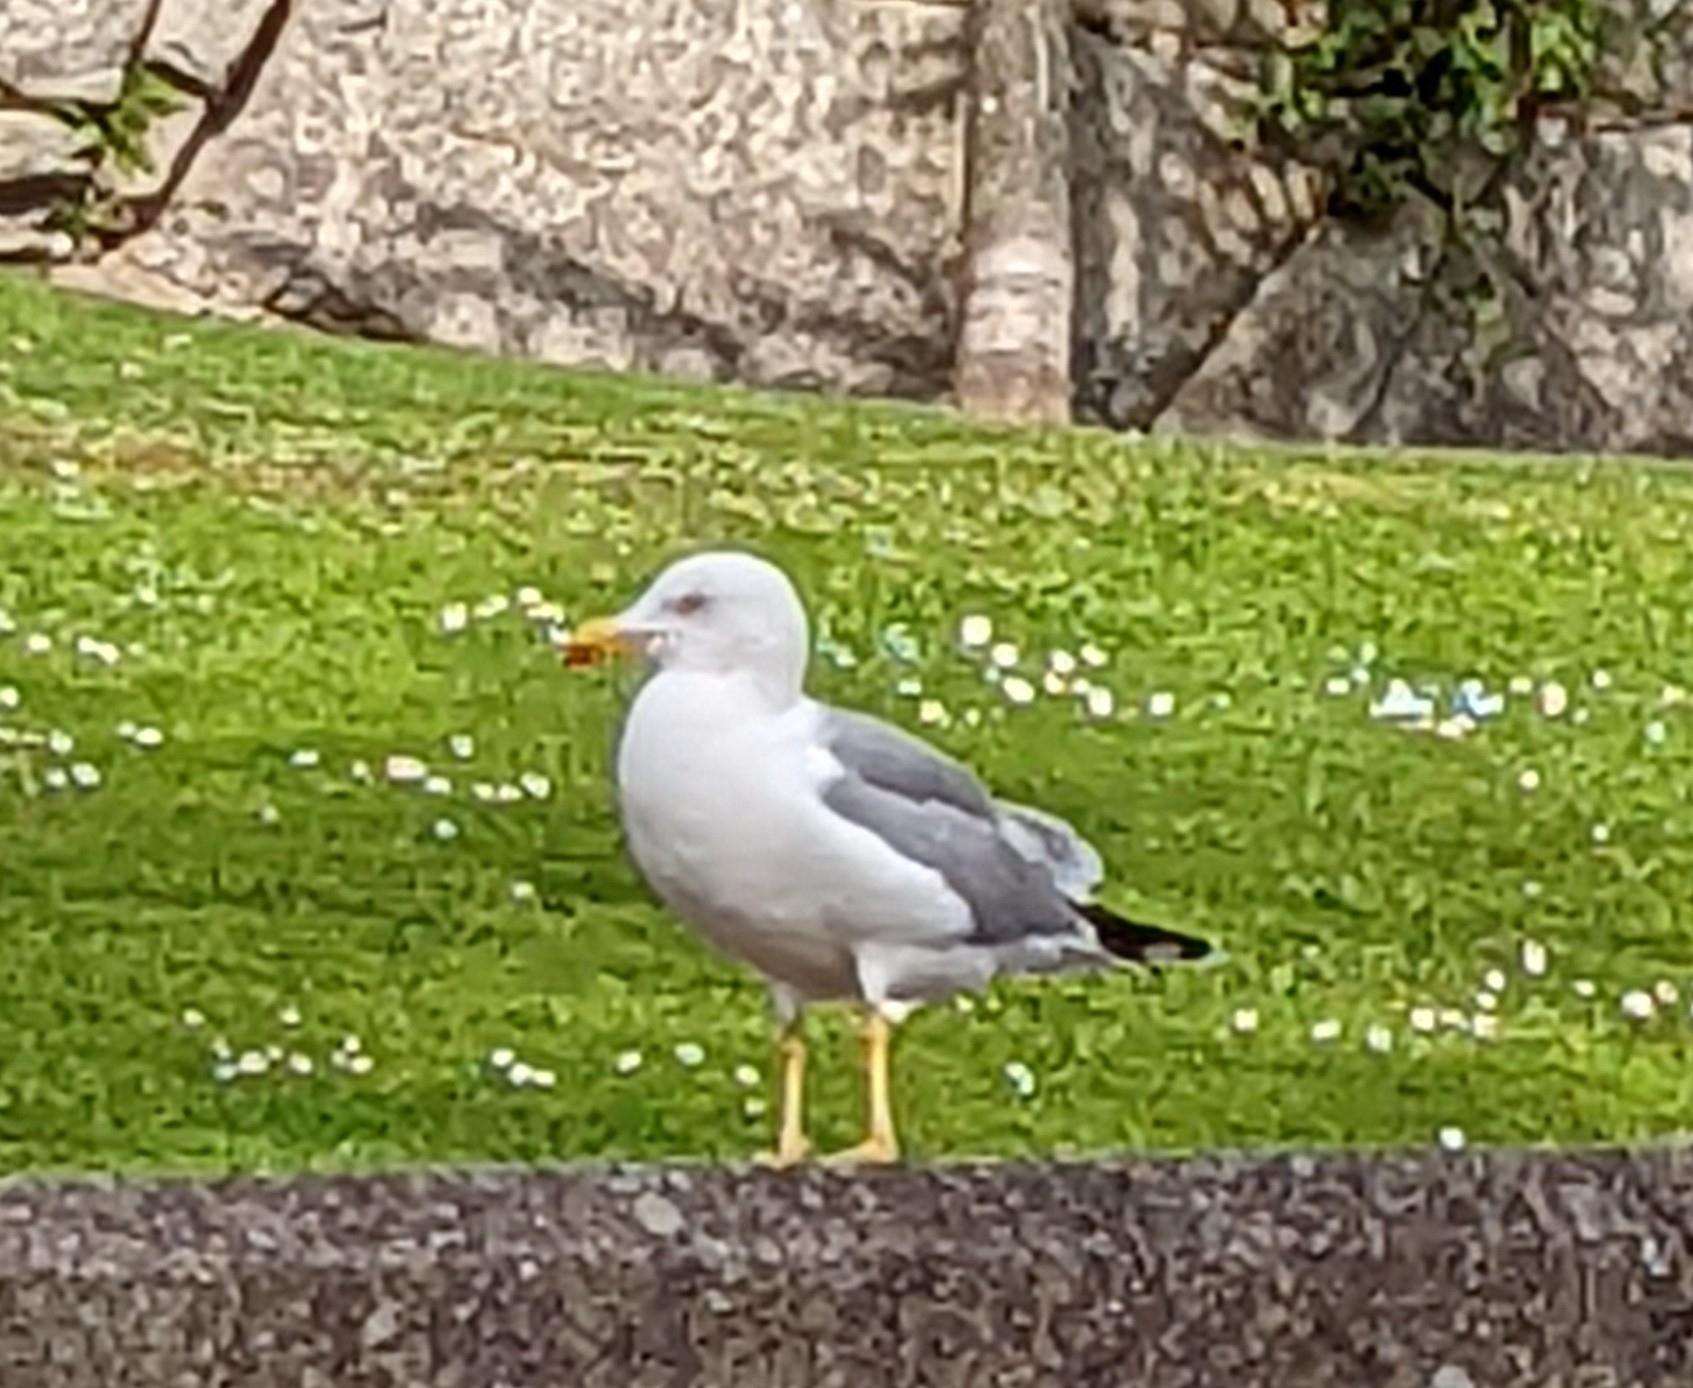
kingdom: Animalia
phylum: Chordata
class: Aves
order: Charadriiformes
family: Laridae
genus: Larus
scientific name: Larus michahellis
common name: Yellow-legged gull
